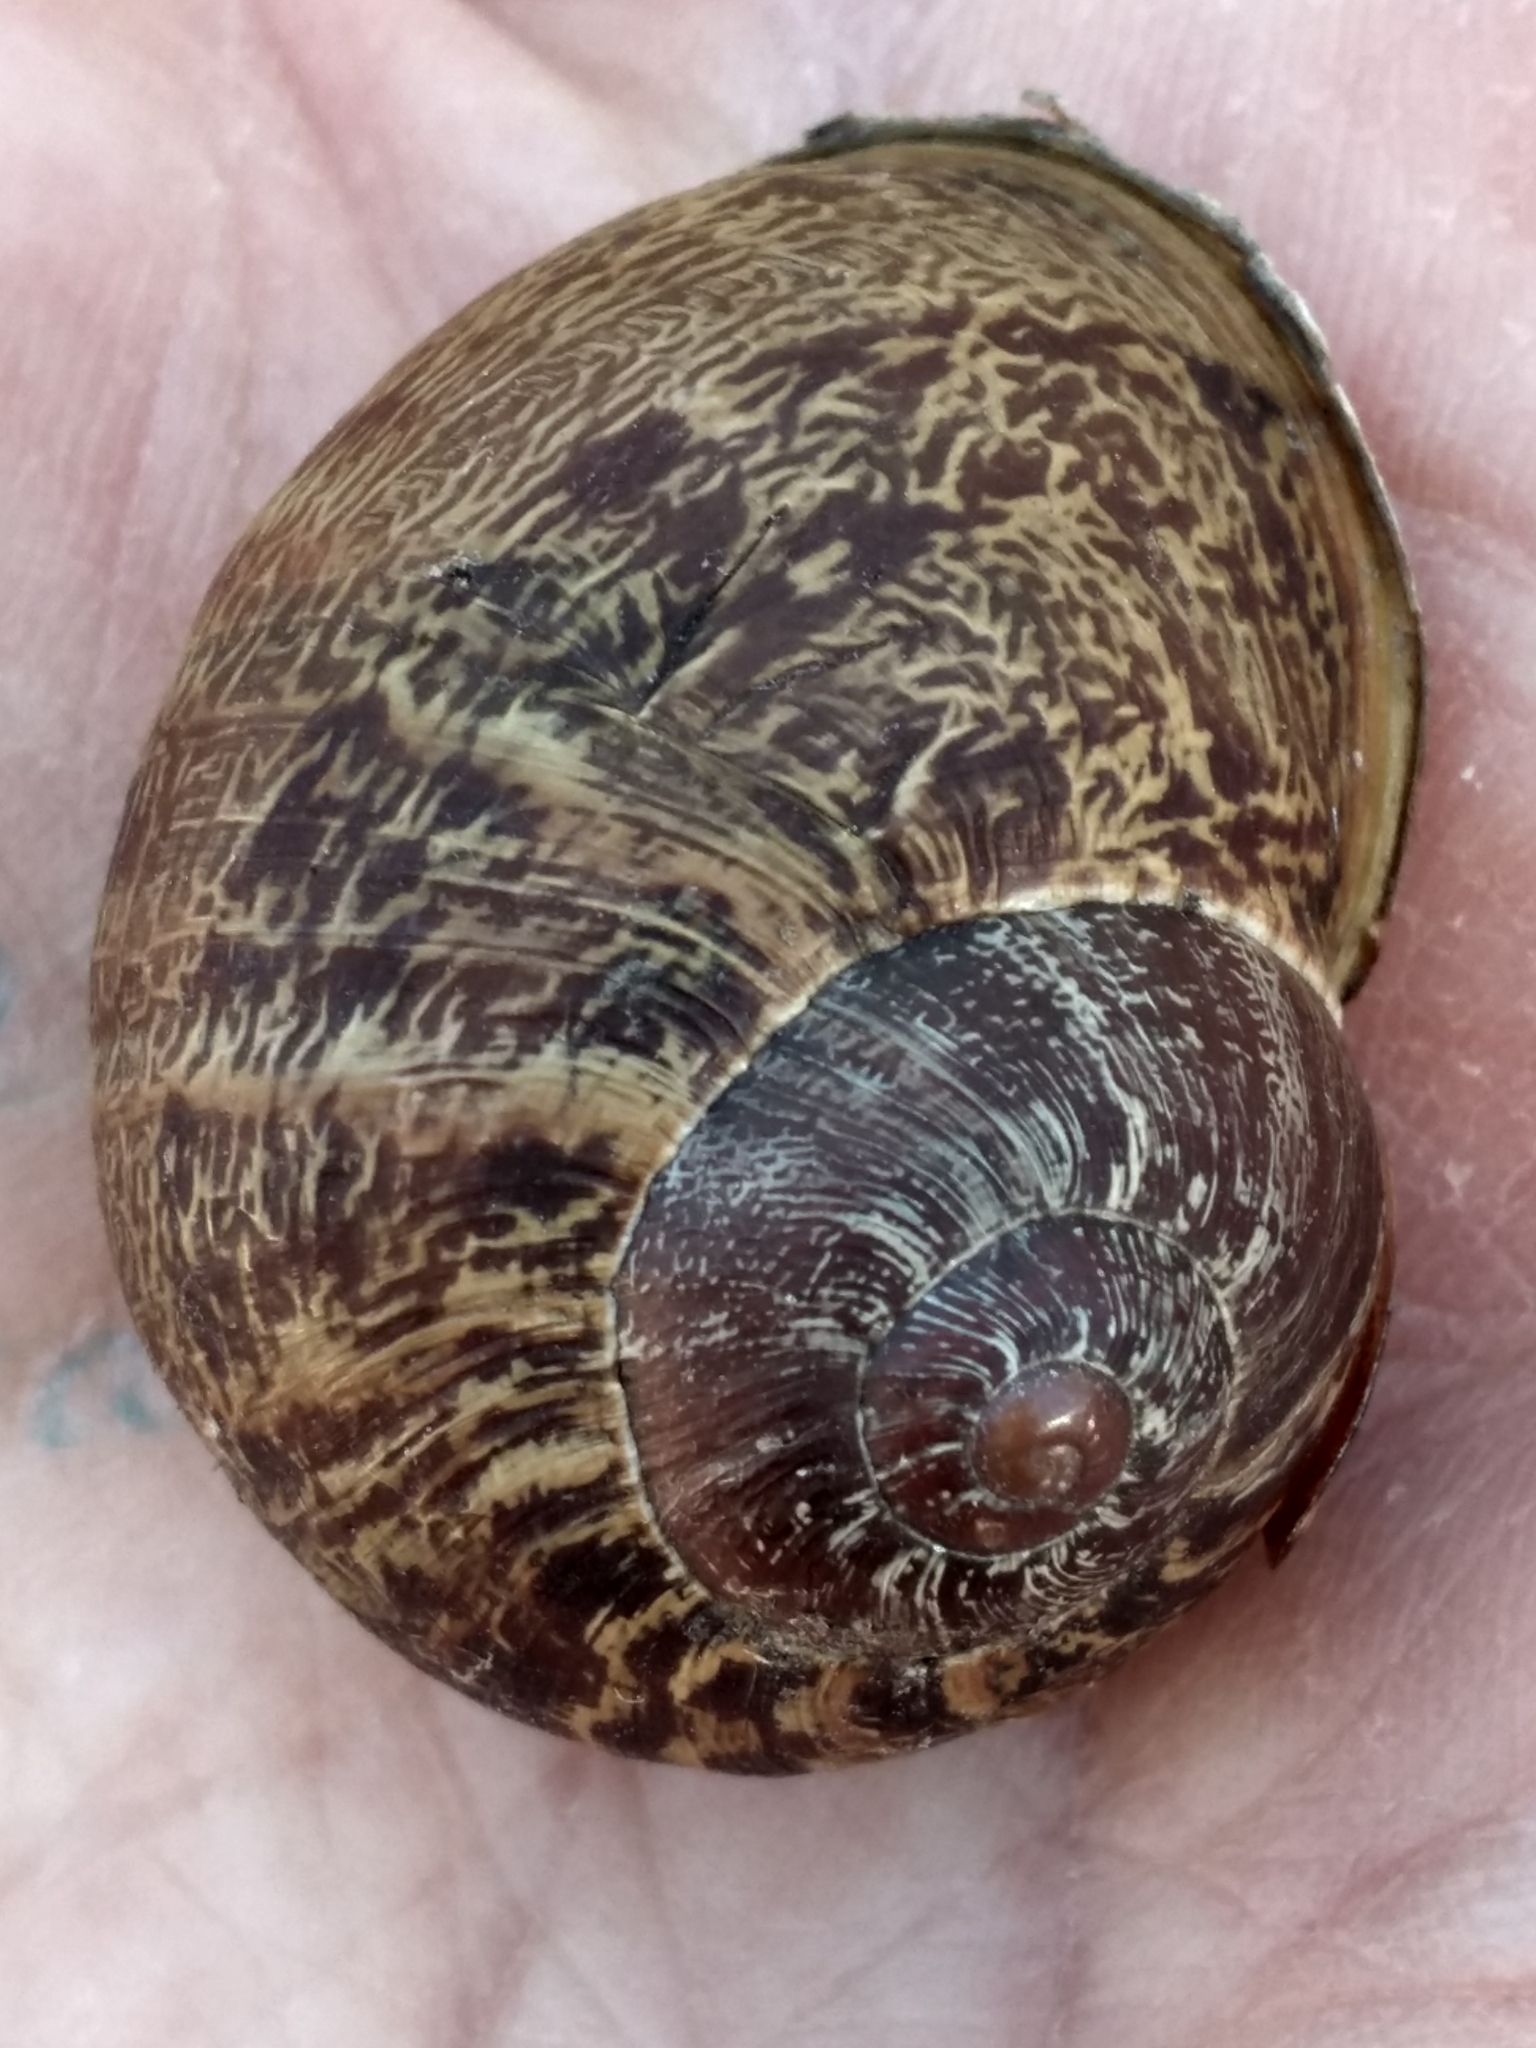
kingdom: Animalia
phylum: Mollusca
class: Gastropoda
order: Stylommatophora
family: Helicidae
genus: Cornu
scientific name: Cornu aspersum
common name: Brown garden snail
